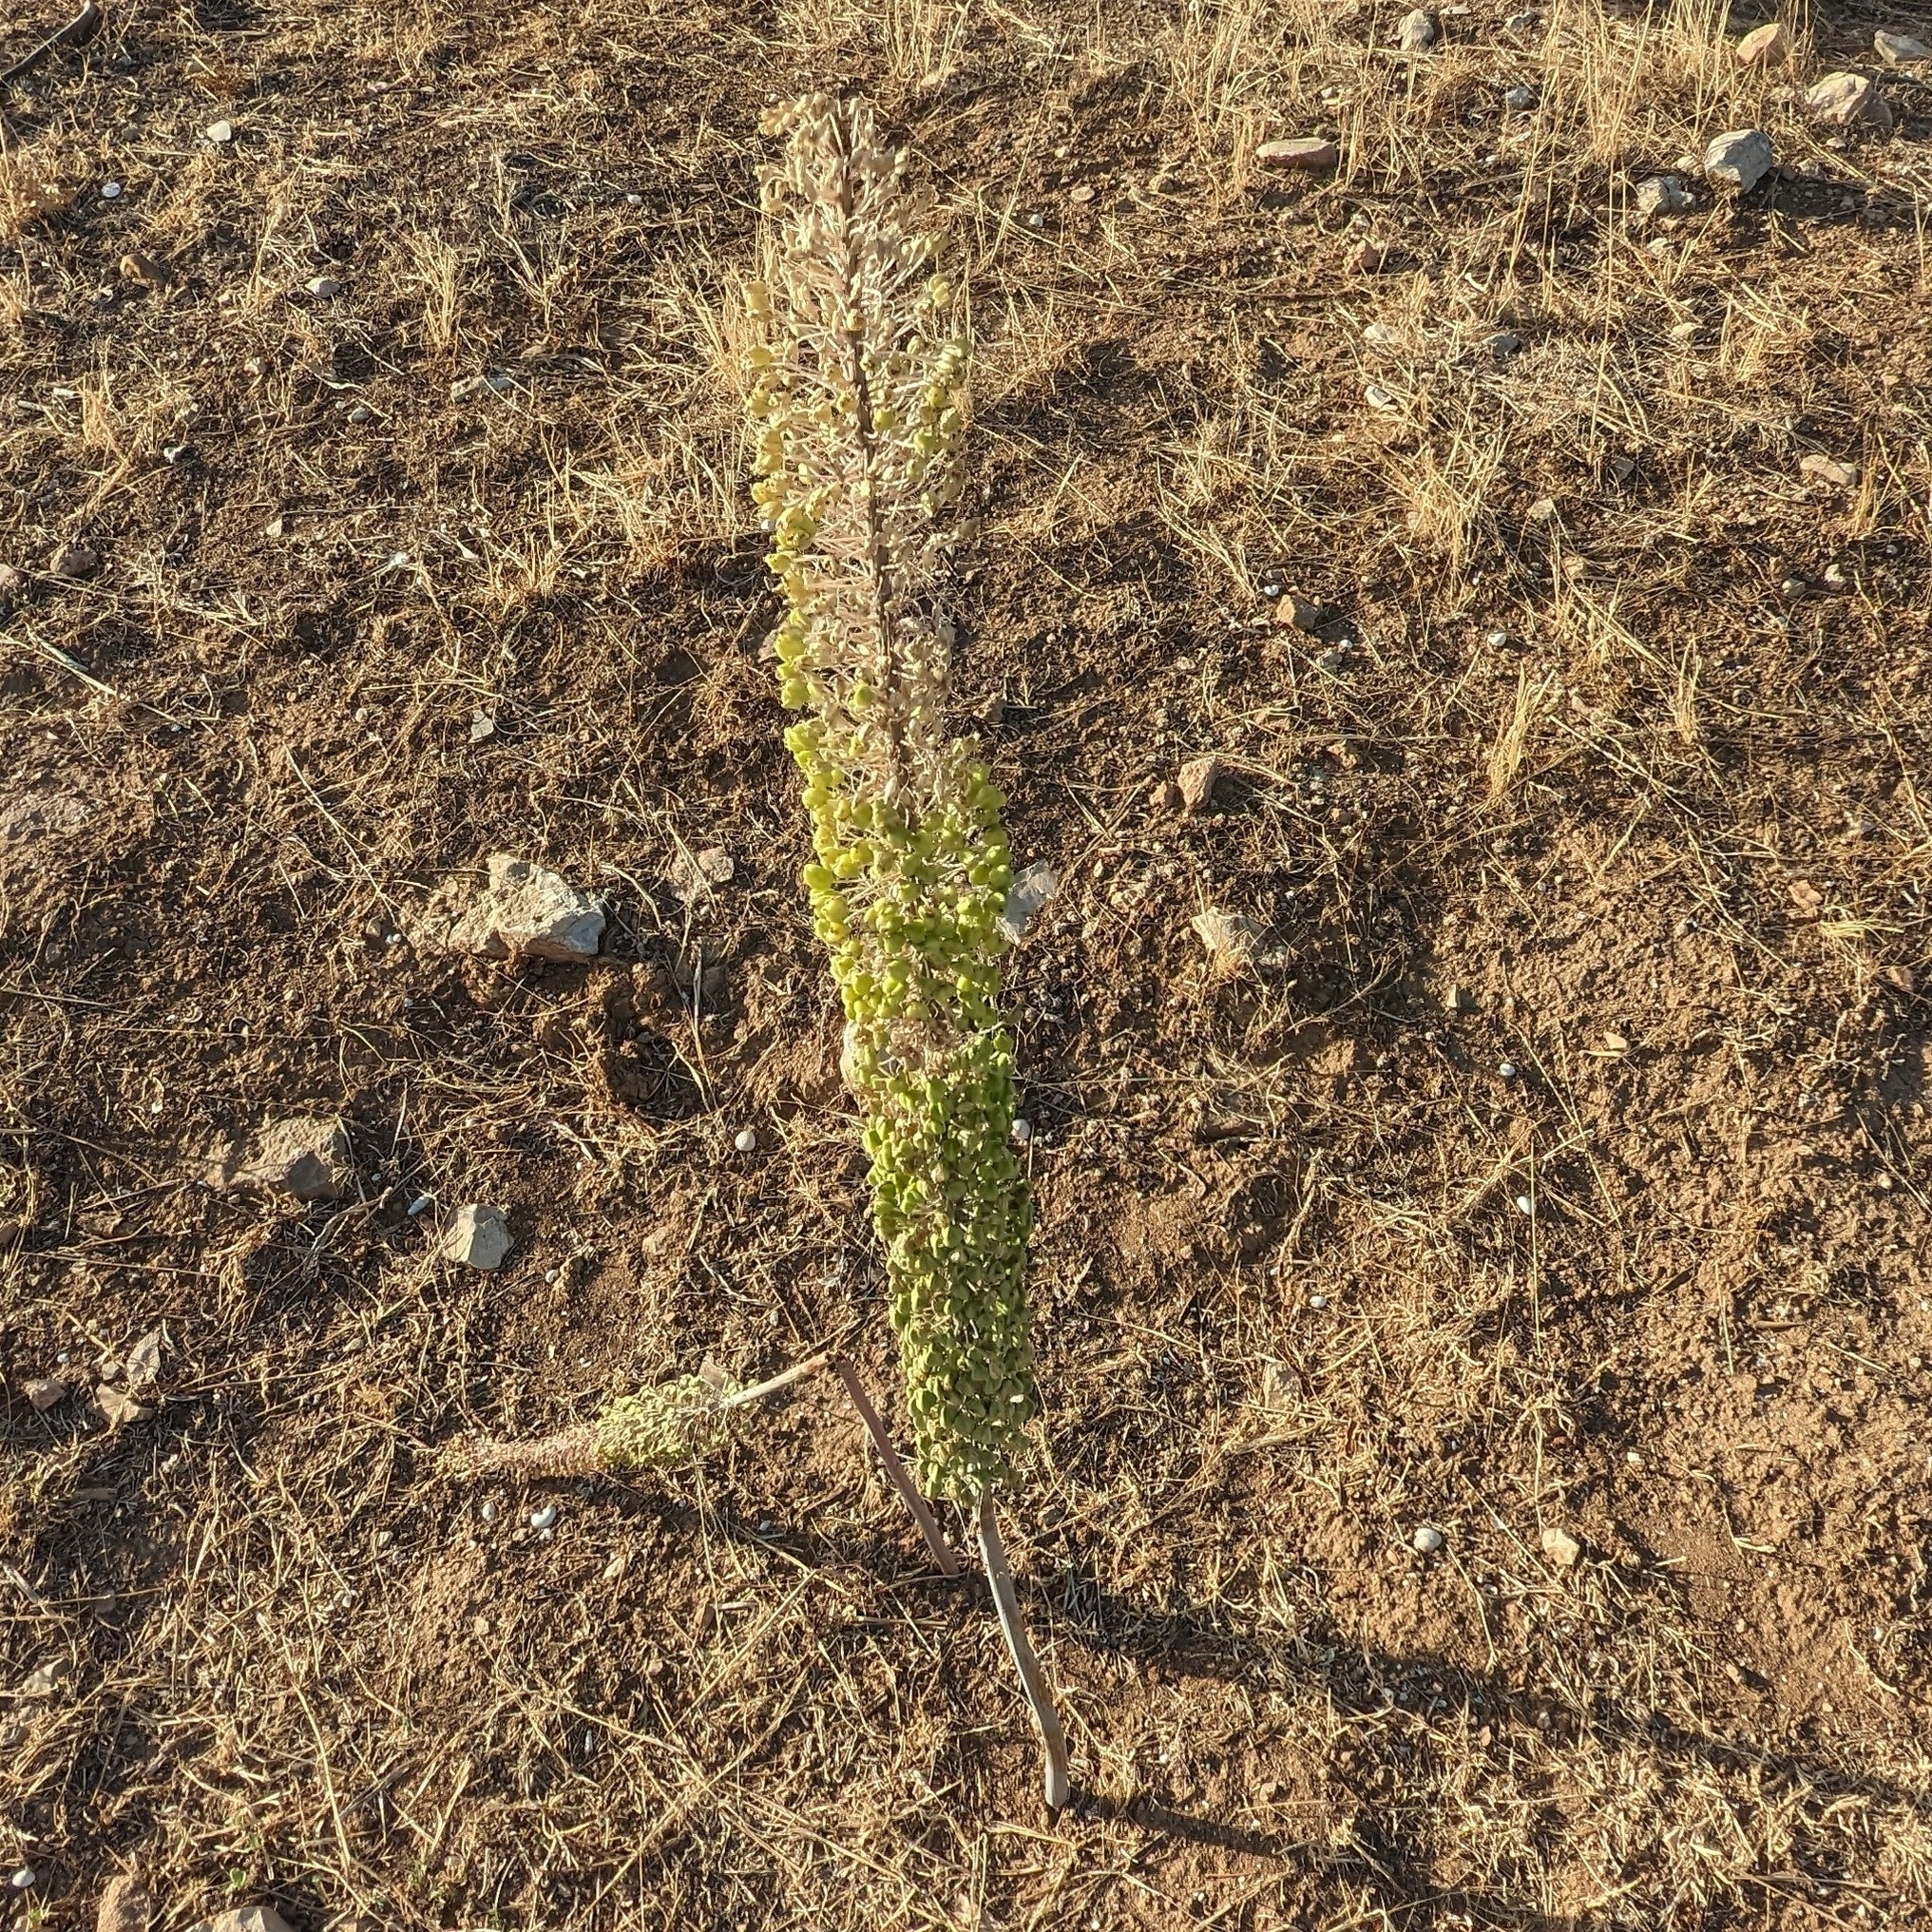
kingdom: Plantae
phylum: Tracheophyta
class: Liliopsida
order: Asparagales
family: Asparagaceae
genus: Drimia
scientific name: Drimia numidica
